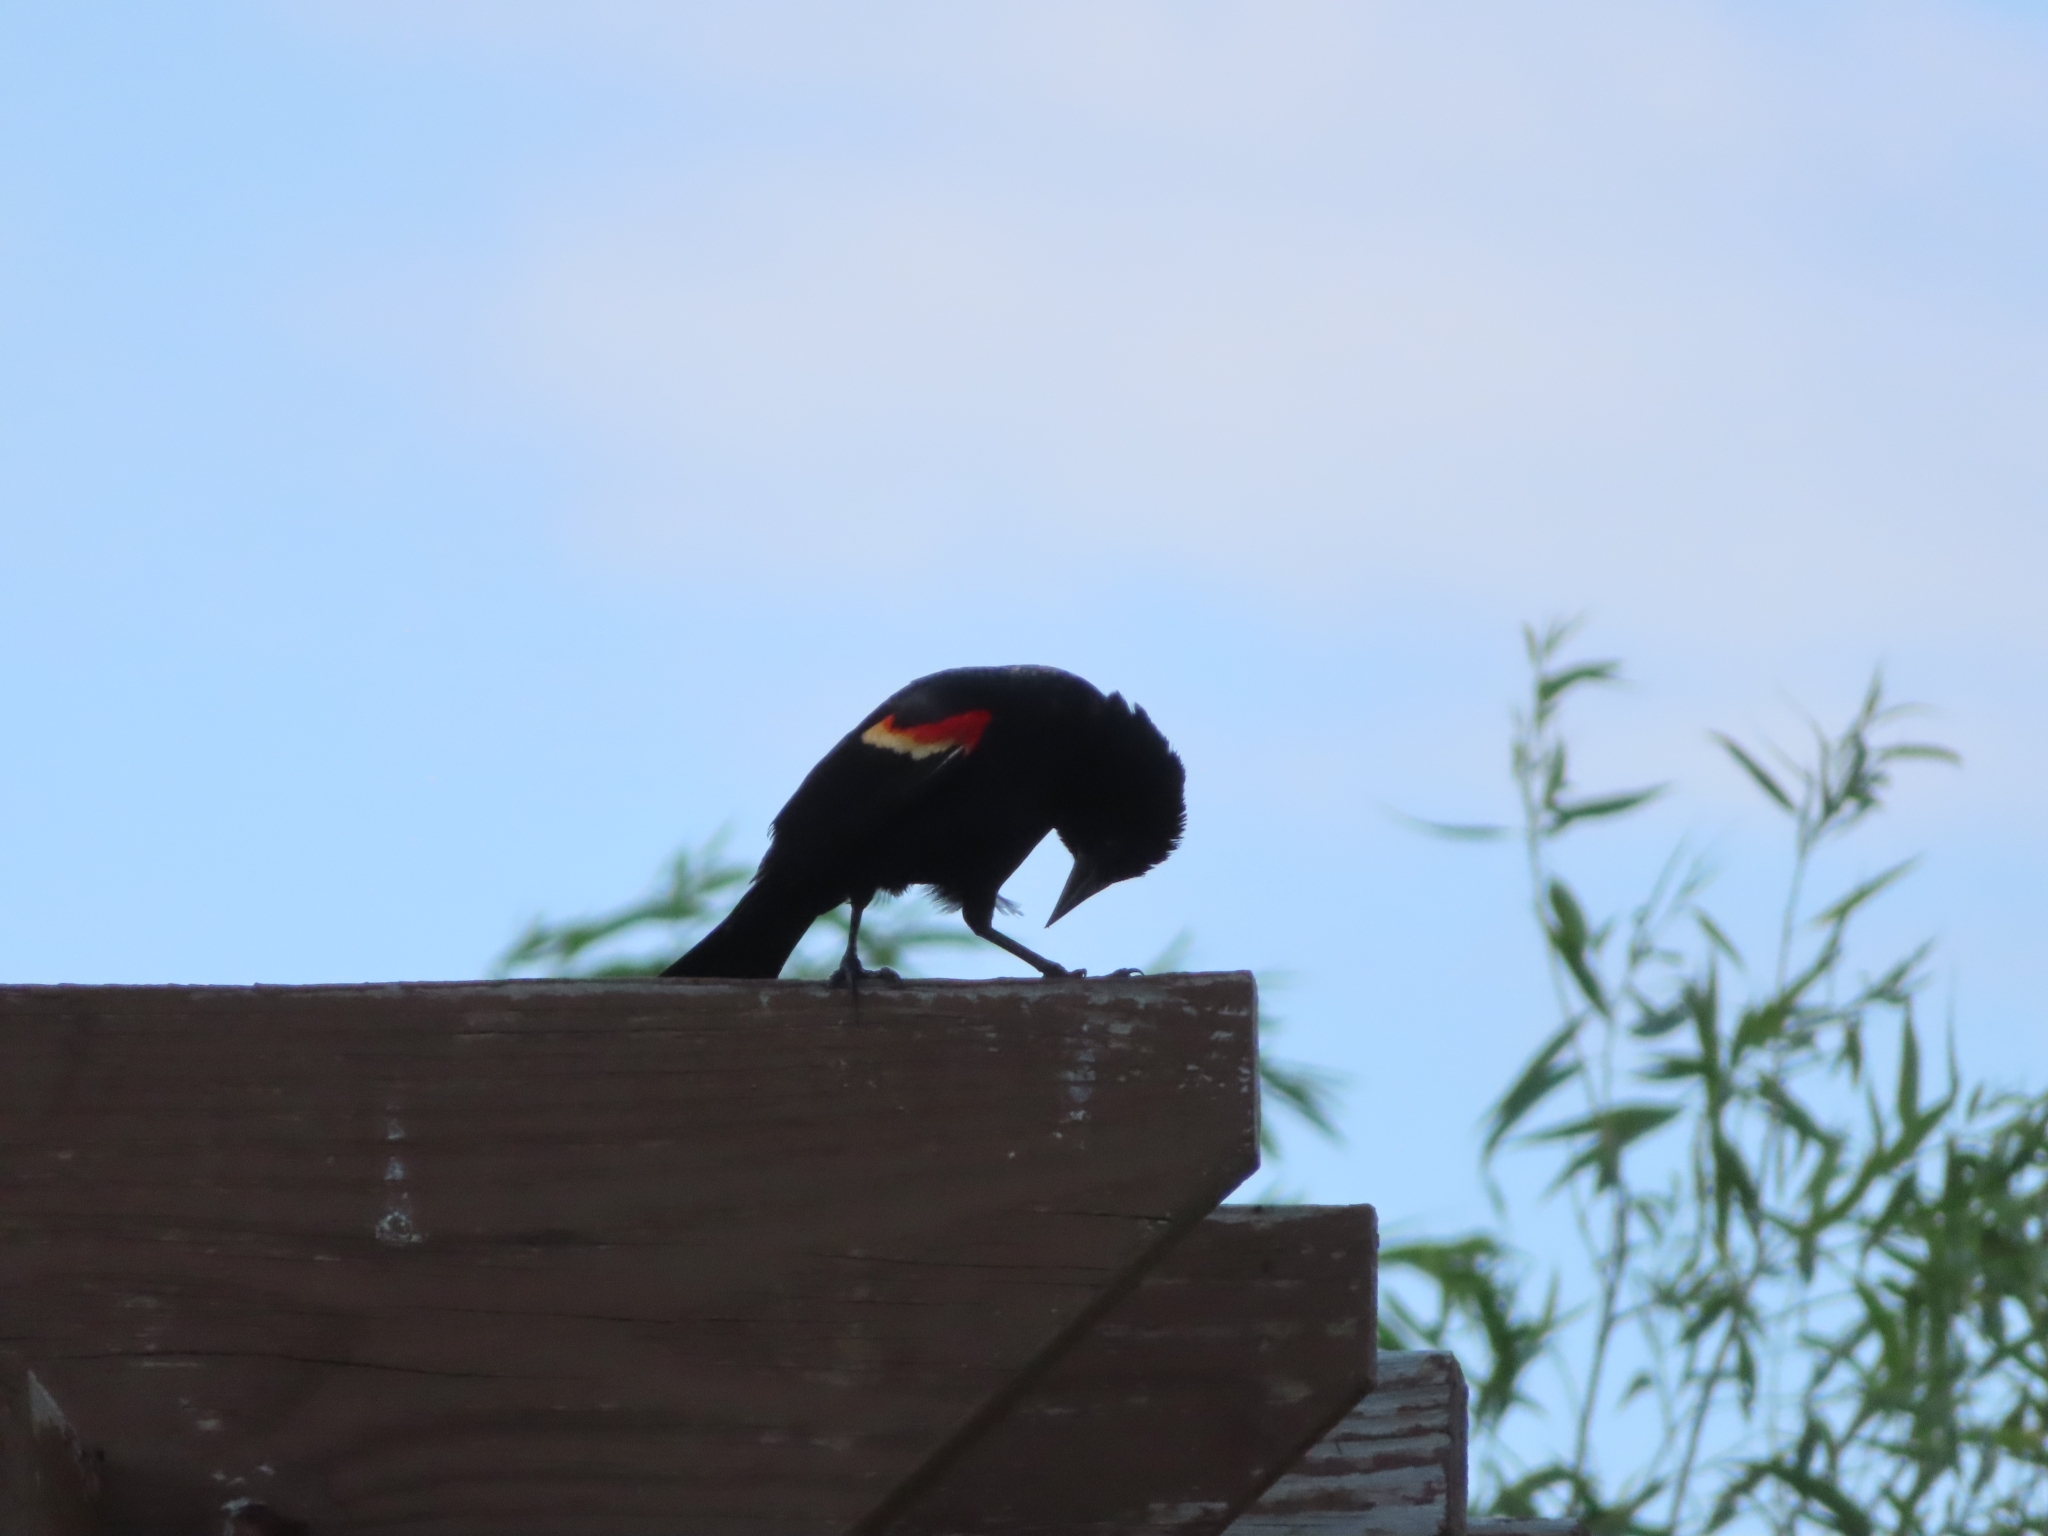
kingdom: Animalia
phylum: Chordata
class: Aves
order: Passeriformes
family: Icteridae
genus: Agelaius
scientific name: Agelaius phoeniceus
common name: Red-winged blackbird
